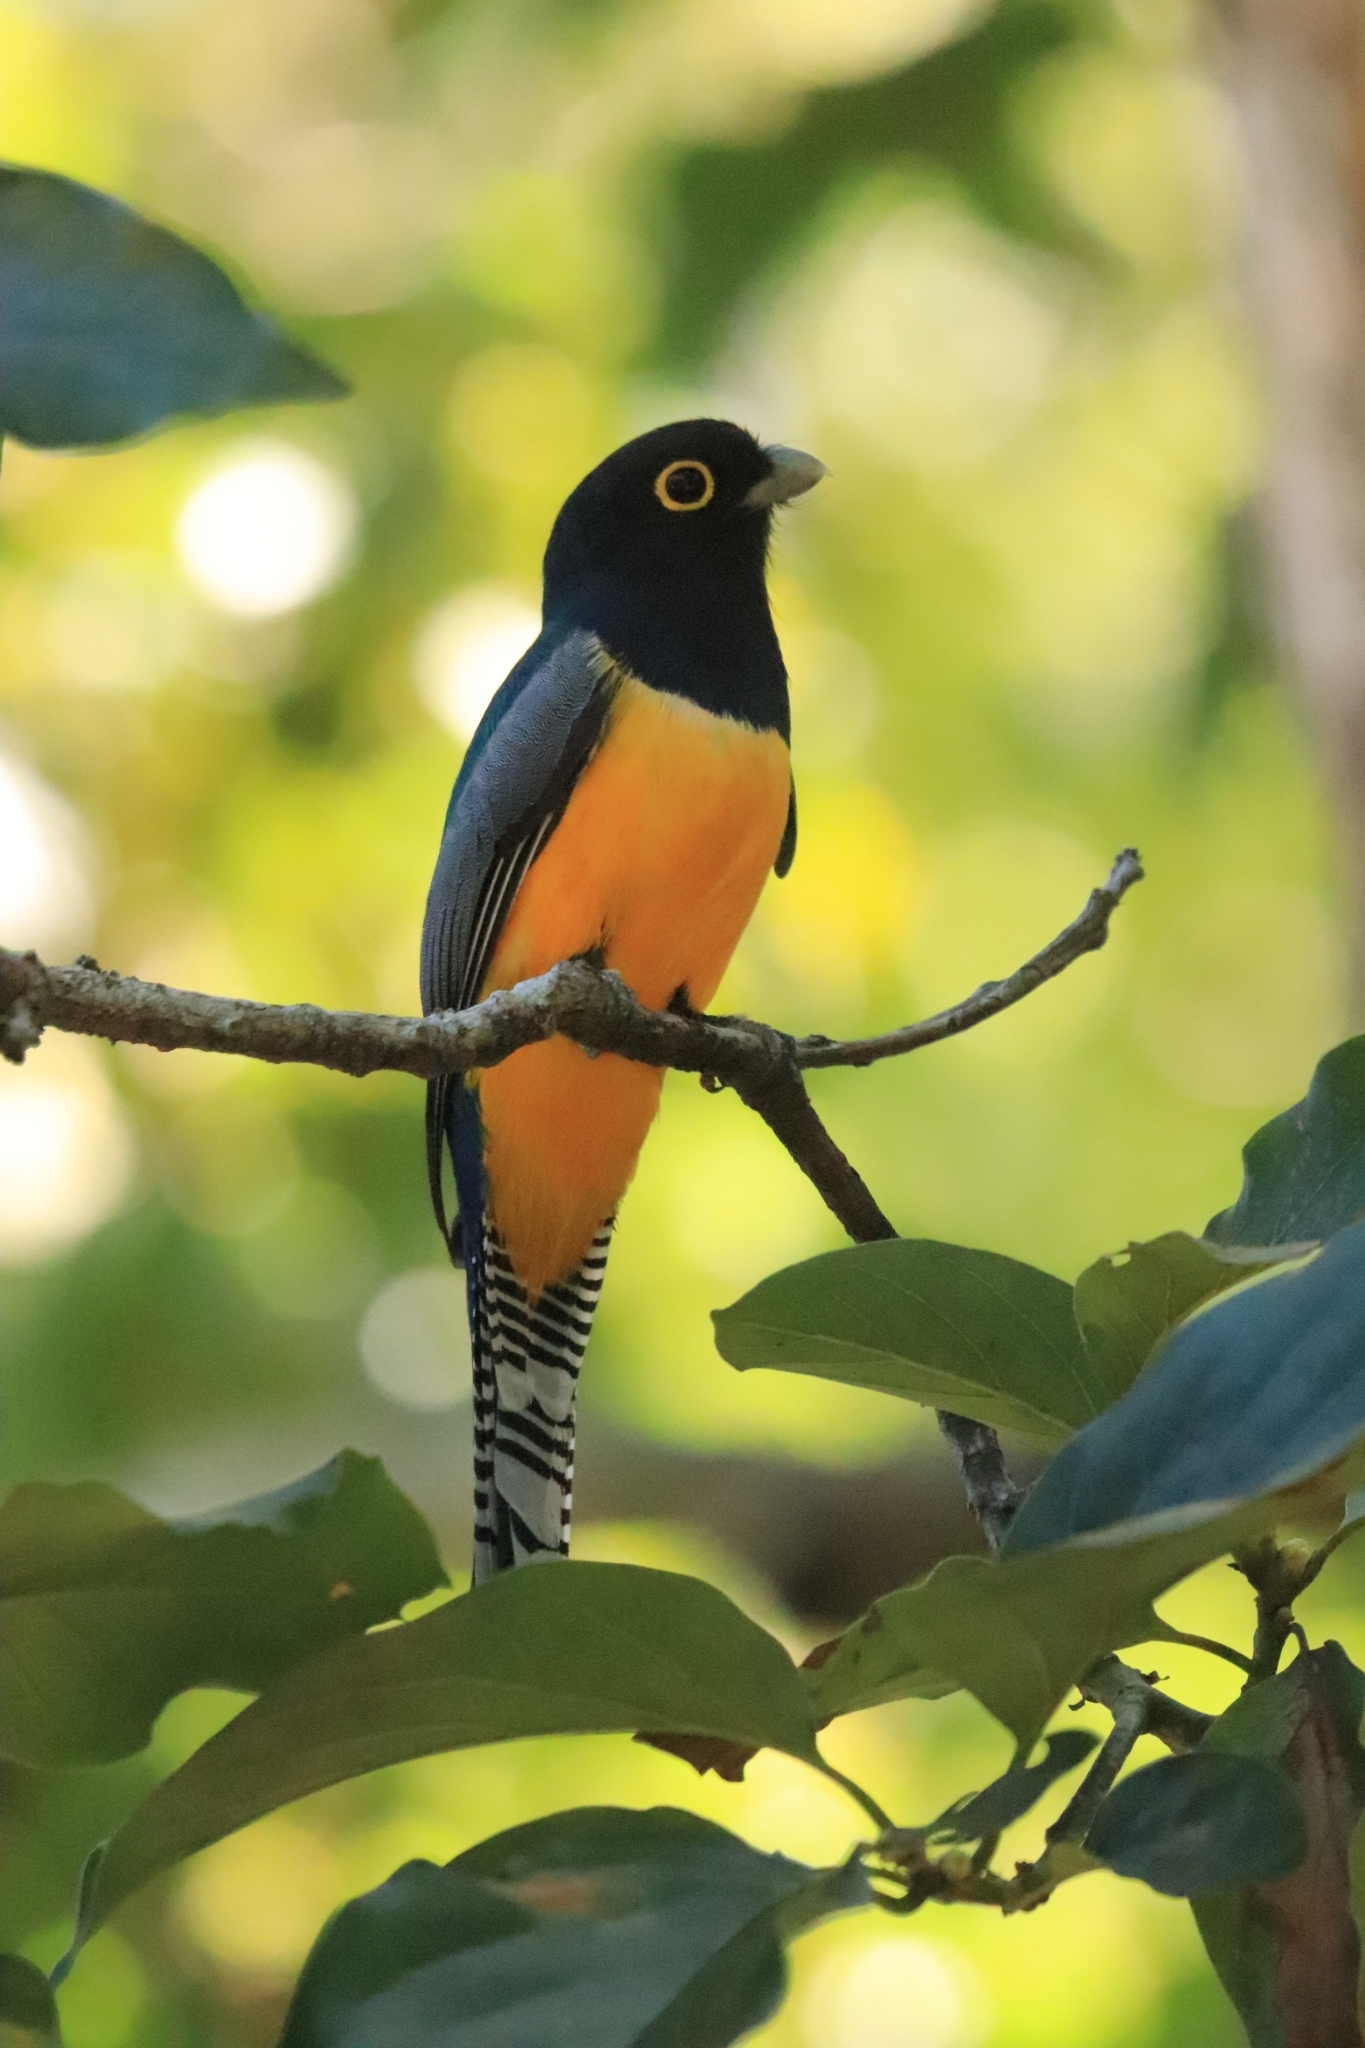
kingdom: Animalia
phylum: Chordata
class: Aves
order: Trogoniformes
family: Trogonidae
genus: Trogon
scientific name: Trogon caligatus
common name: Gartered trogon
